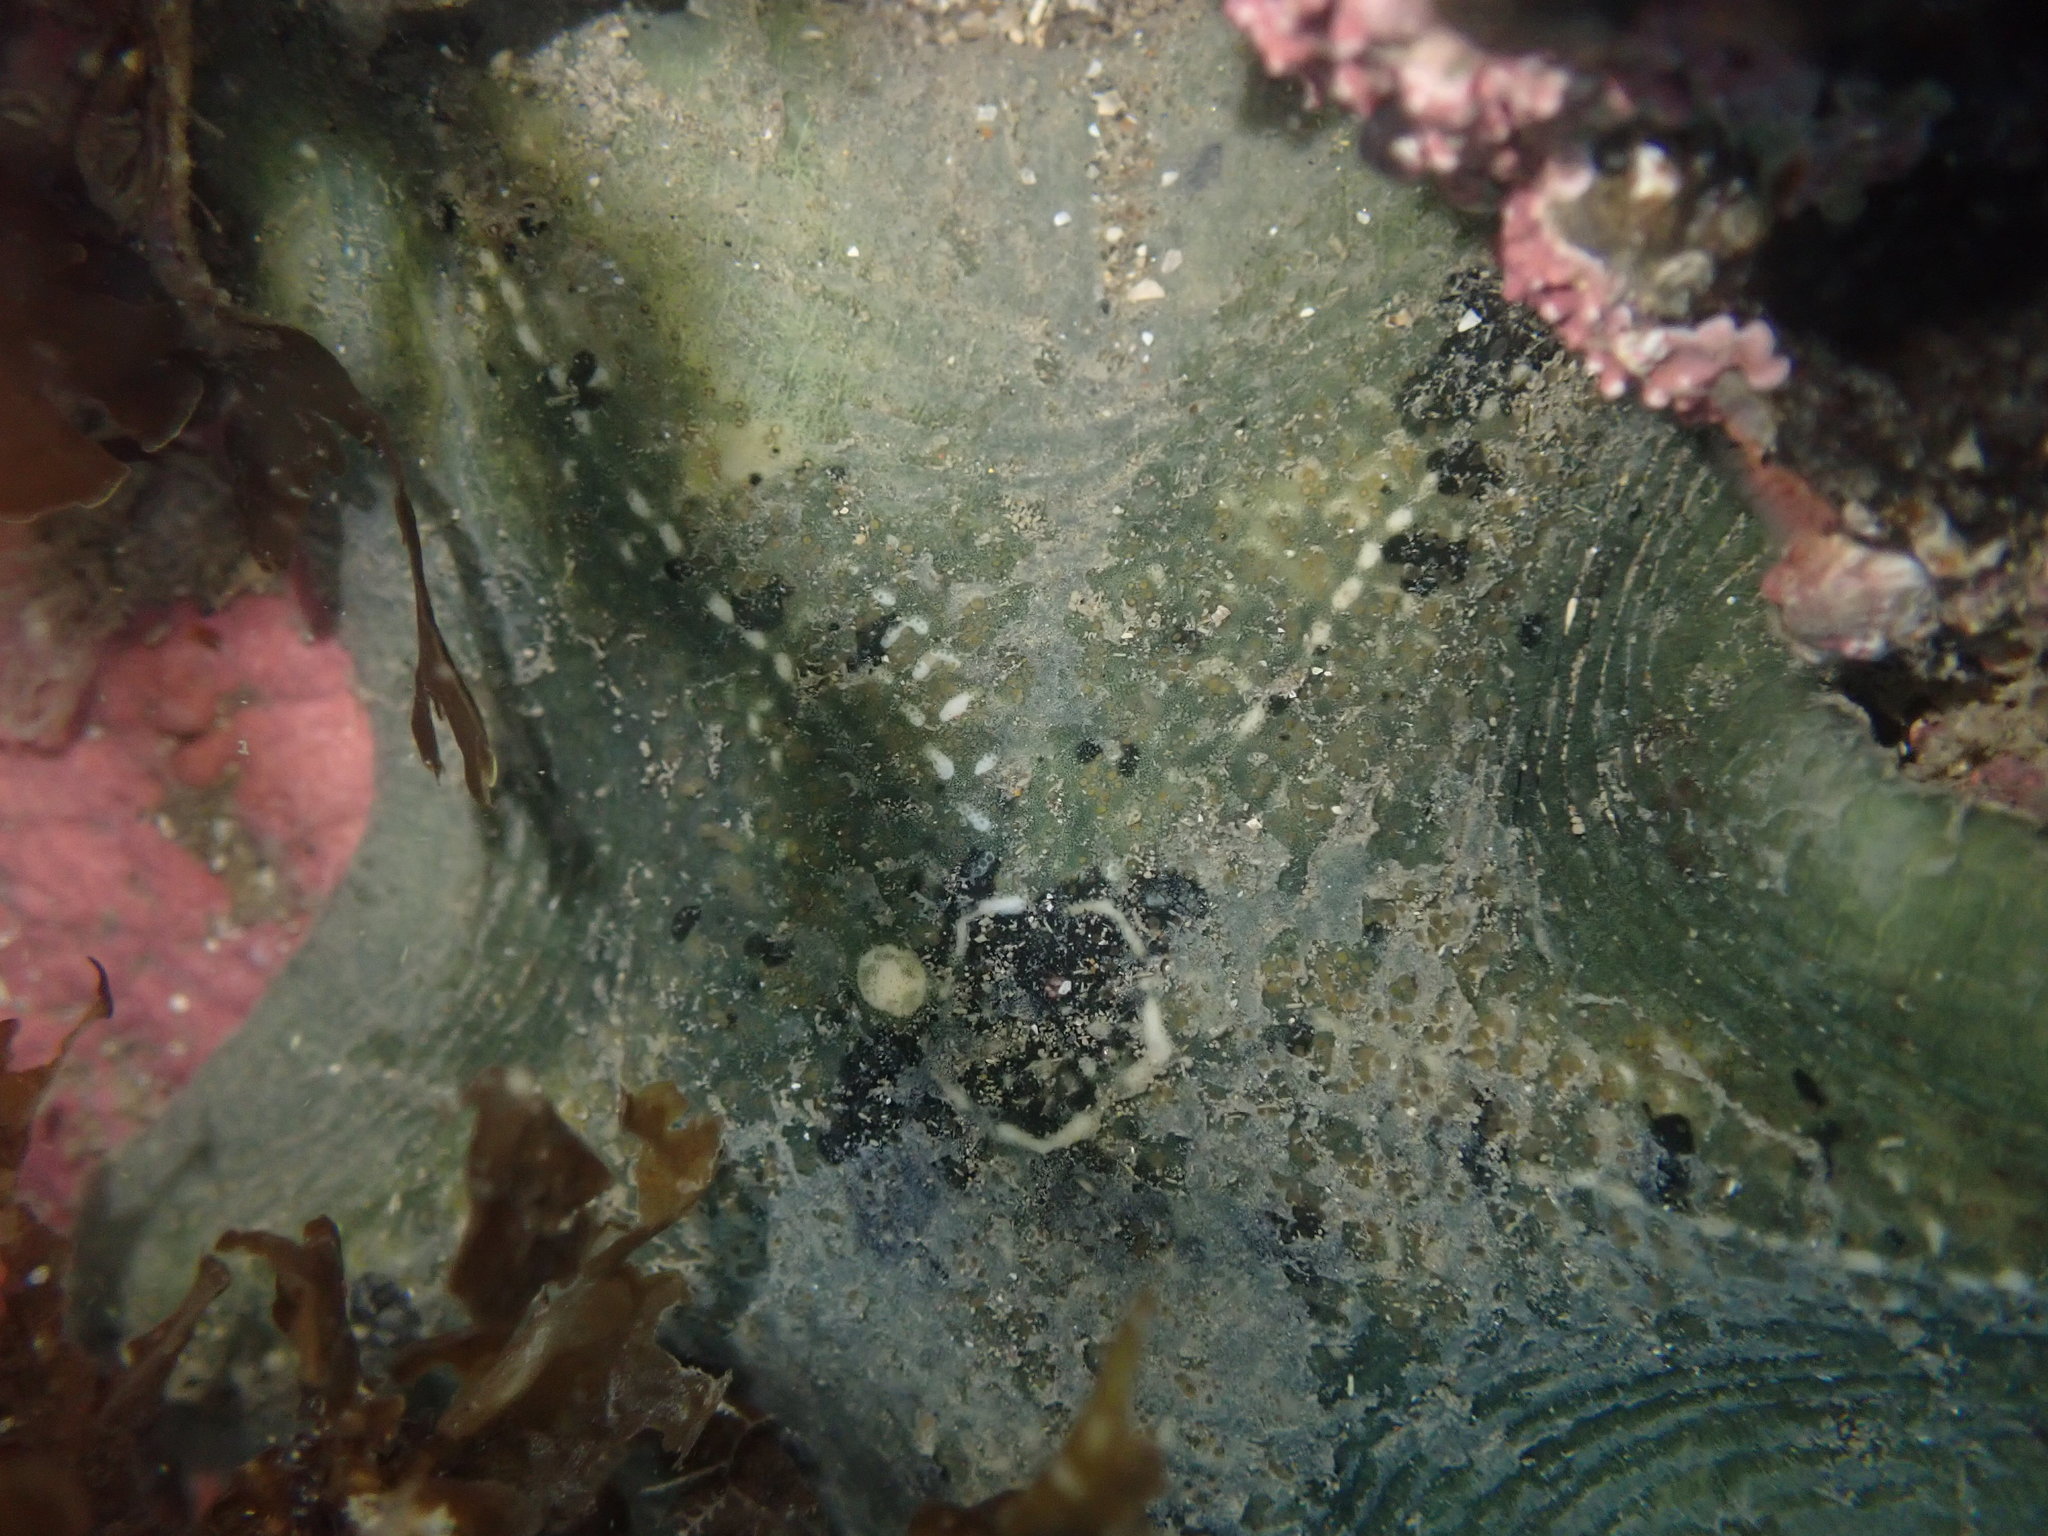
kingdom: Animalia
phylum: Echinodermata
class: Asteroidea
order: Valvatida
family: Asterinidae
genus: Stegnaster
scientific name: Stegnaster inflatus
